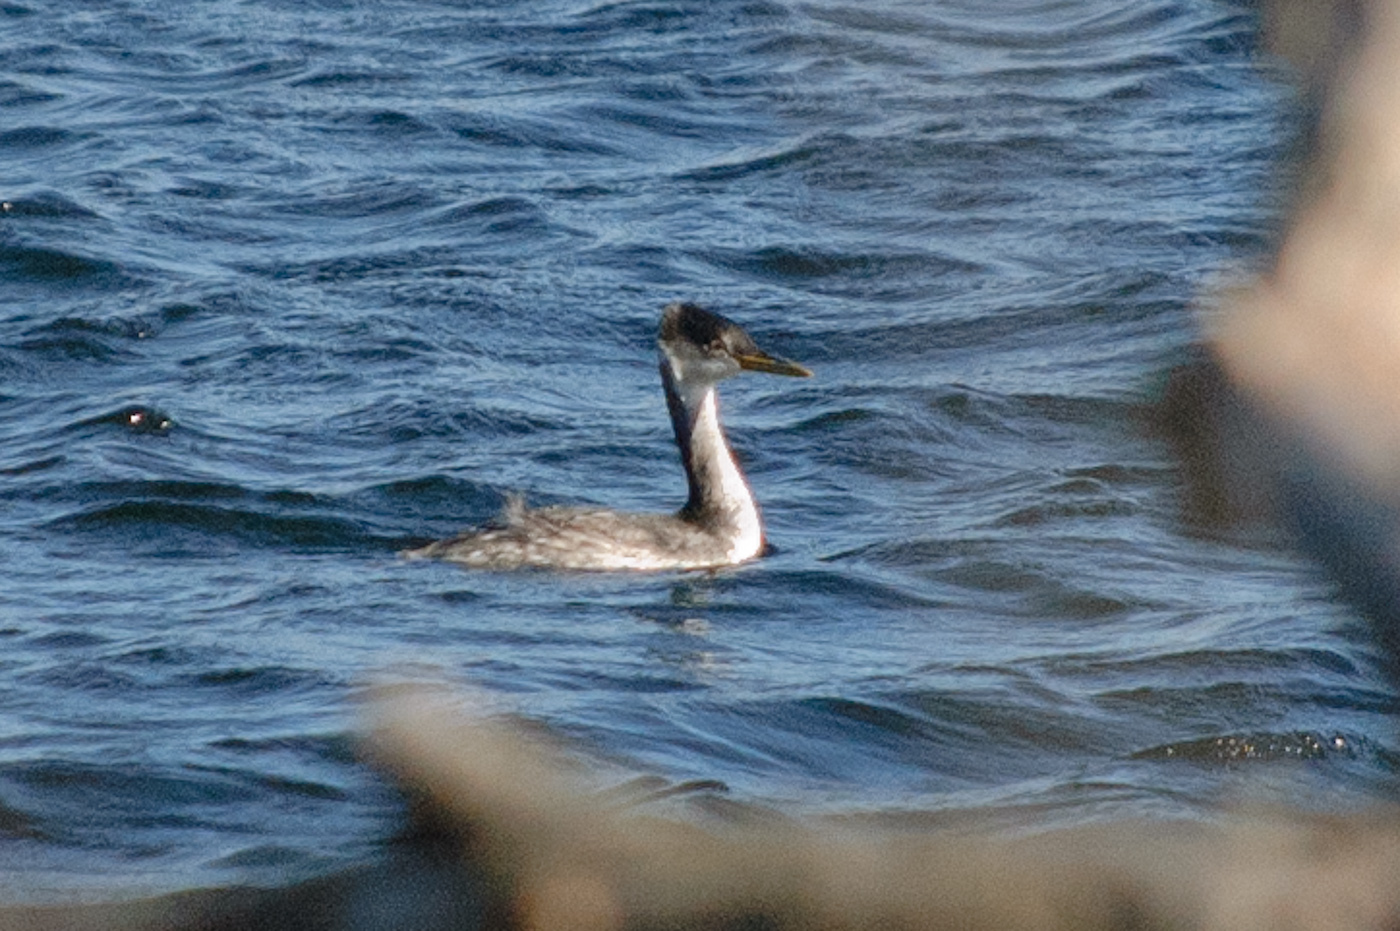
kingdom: Animalia
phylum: Chordata
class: Aves
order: Podicipediformes
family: Podicipedidae
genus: Podiceps
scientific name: Podiceps grisegena
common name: Red-necked grebe
